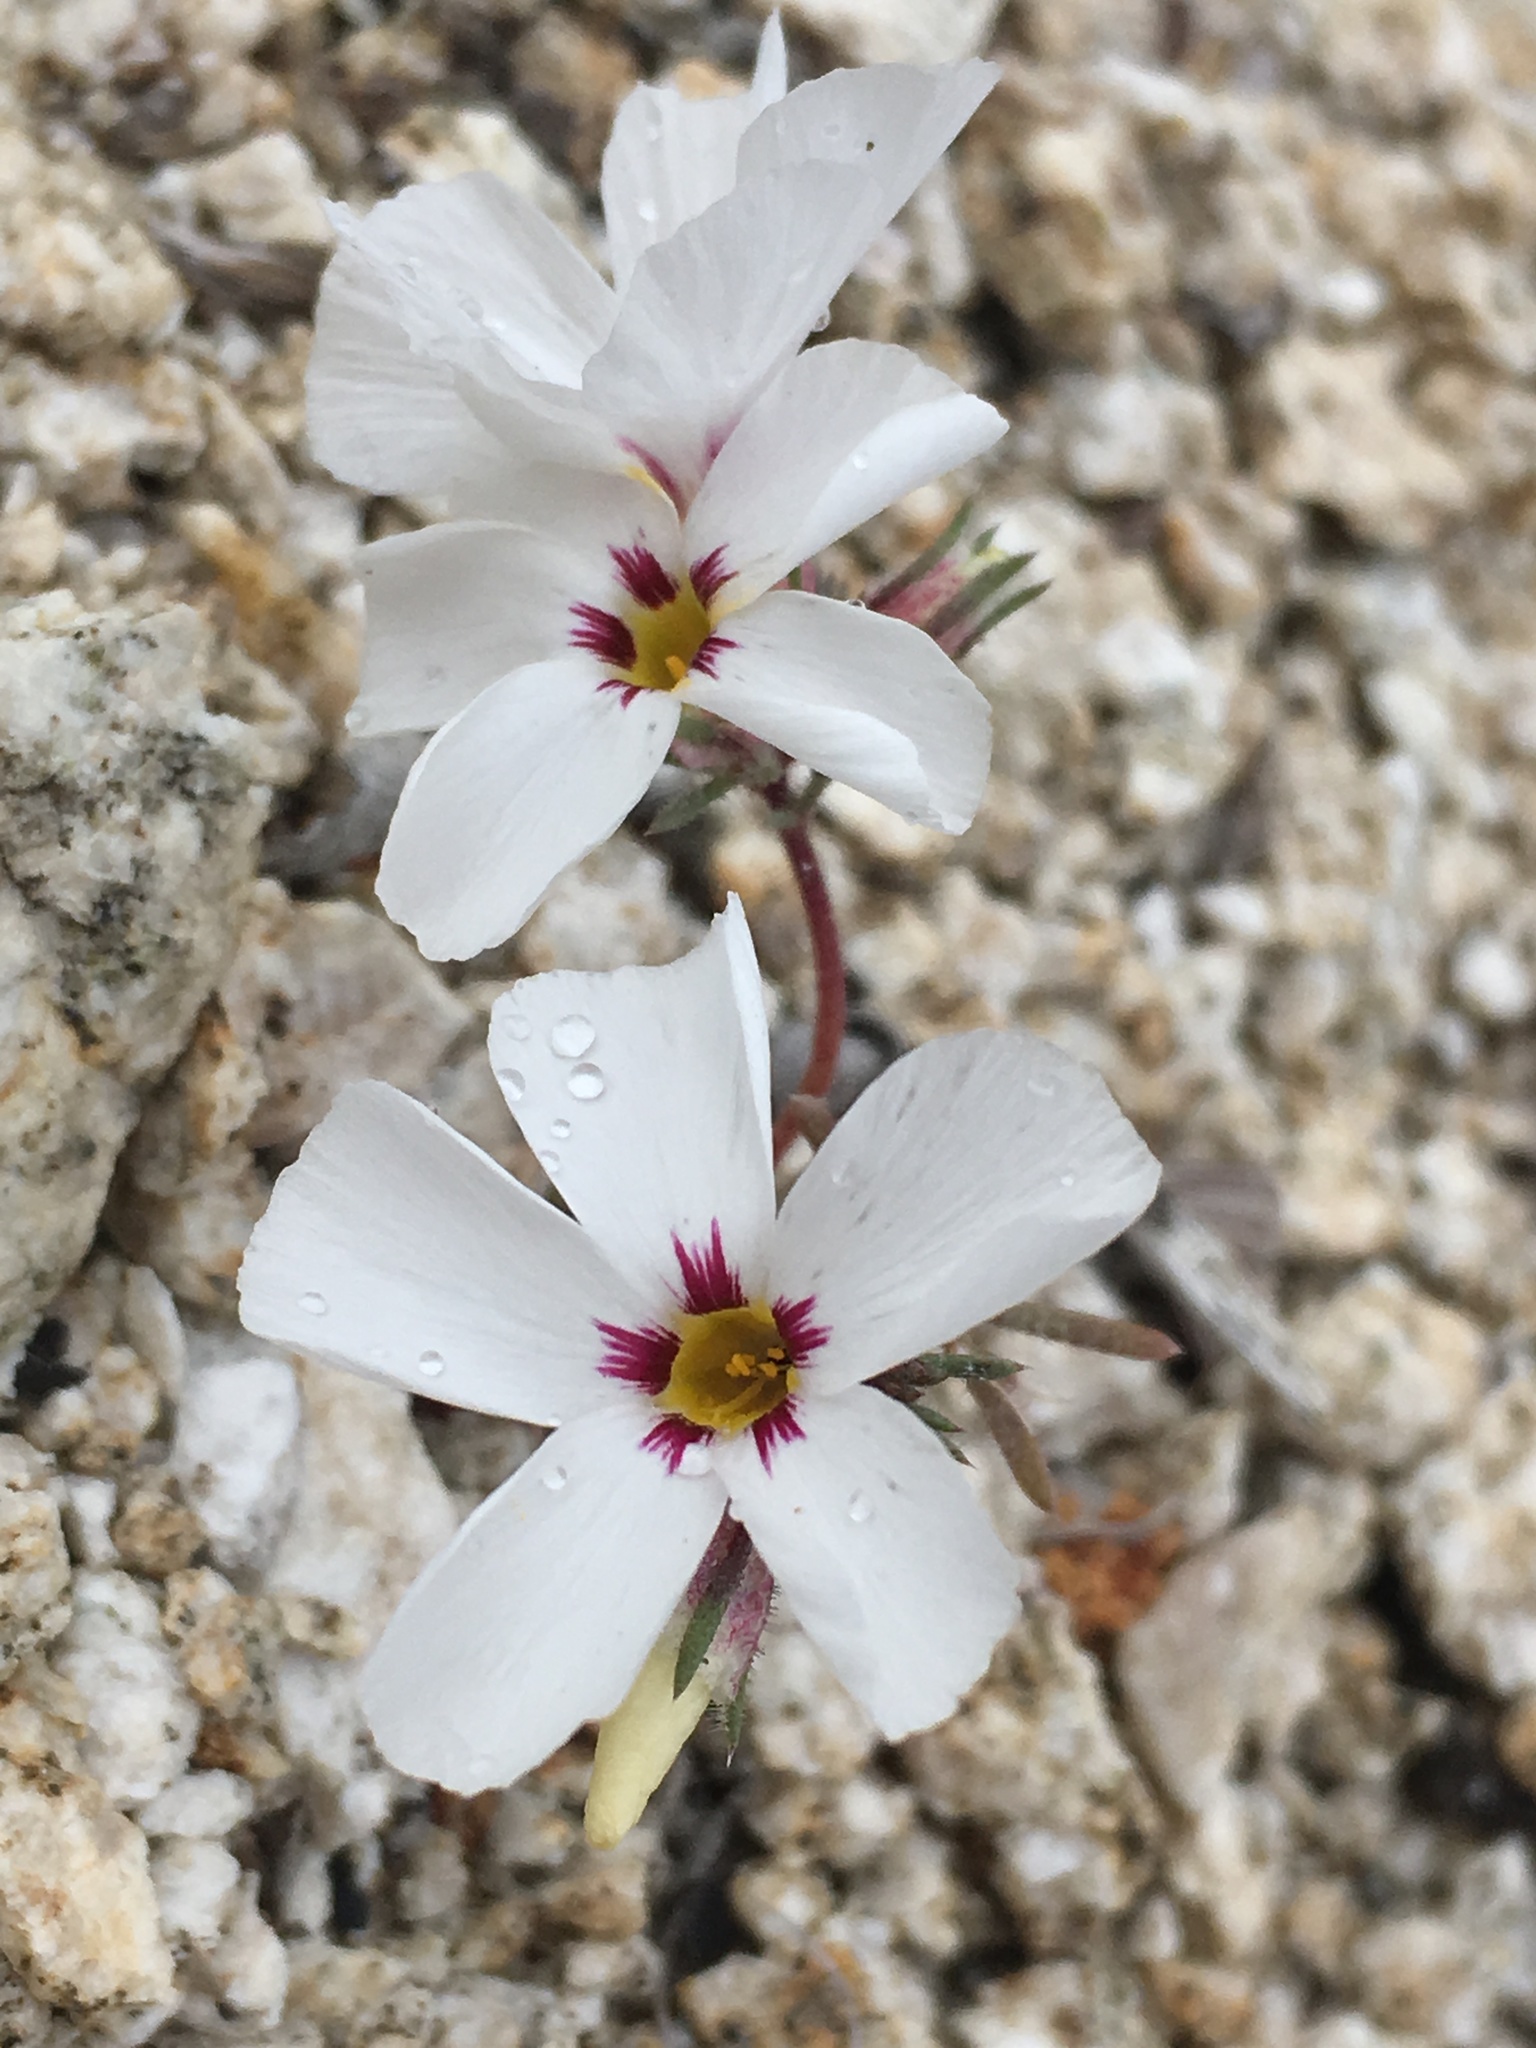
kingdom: Plantae
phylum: Tracheophyta
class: Magnoliopsida
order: Ericales
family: Polemoniaceae
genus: Linanthus
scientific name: Linanthus concinnus
